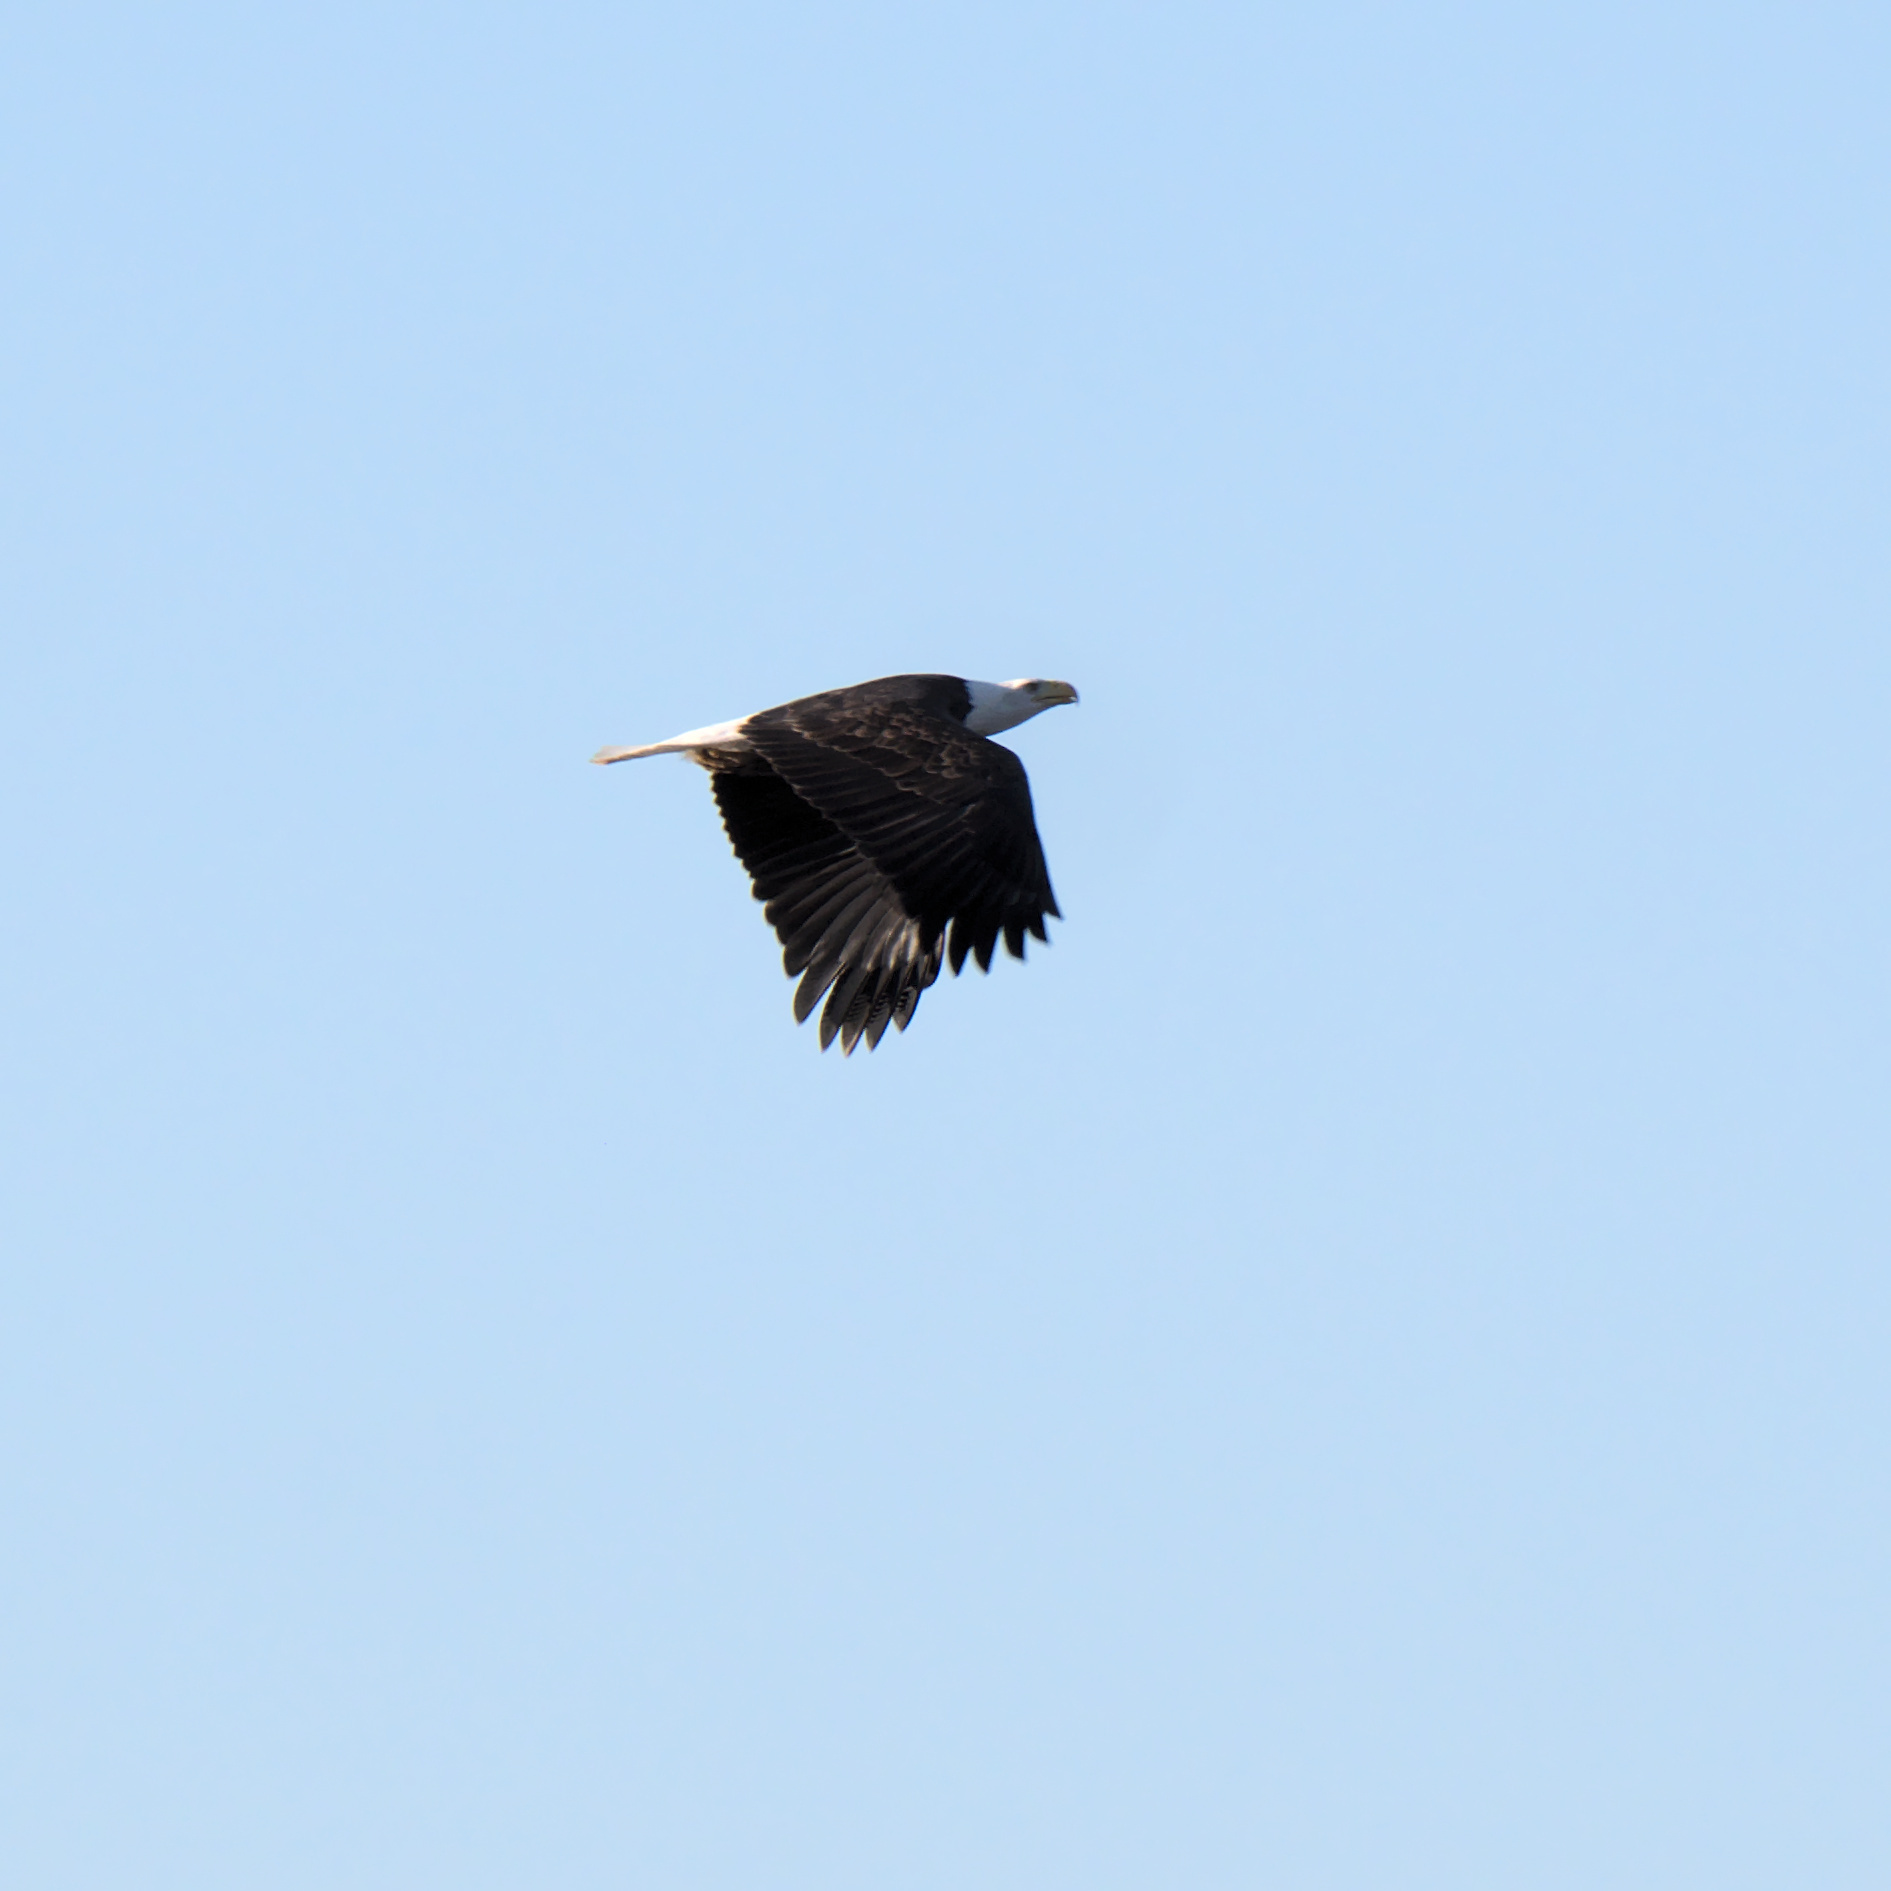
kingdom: Animalia
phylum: Chordata
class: Aves
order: Accipitriformes
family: Accipitridae
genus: Haliaeetus
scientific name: Haliaeetus leucocephalus
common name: Bald eagle
